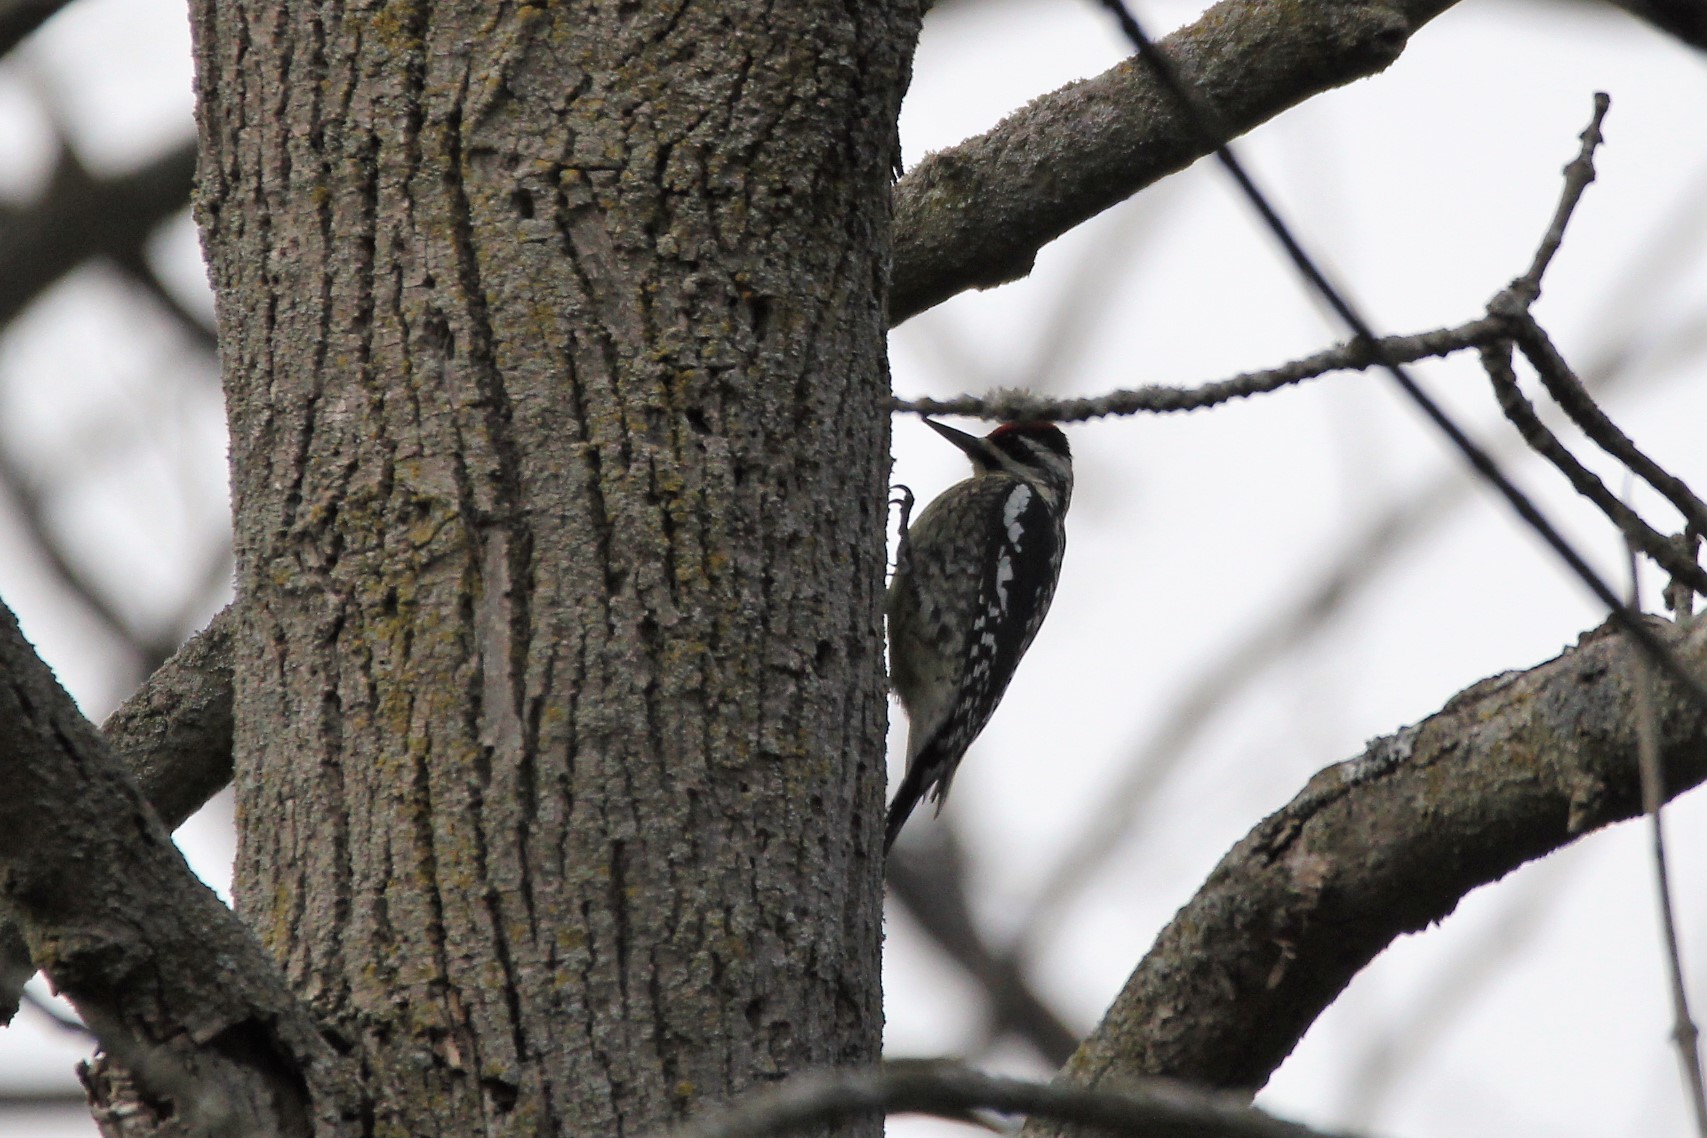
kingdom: Animalia
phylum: Chordata
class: Aves
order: Piciformes
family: Picidae
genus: Sphyrapicus
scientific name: Sphyrapicus varius
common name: Yellow-bellied sapsucker
